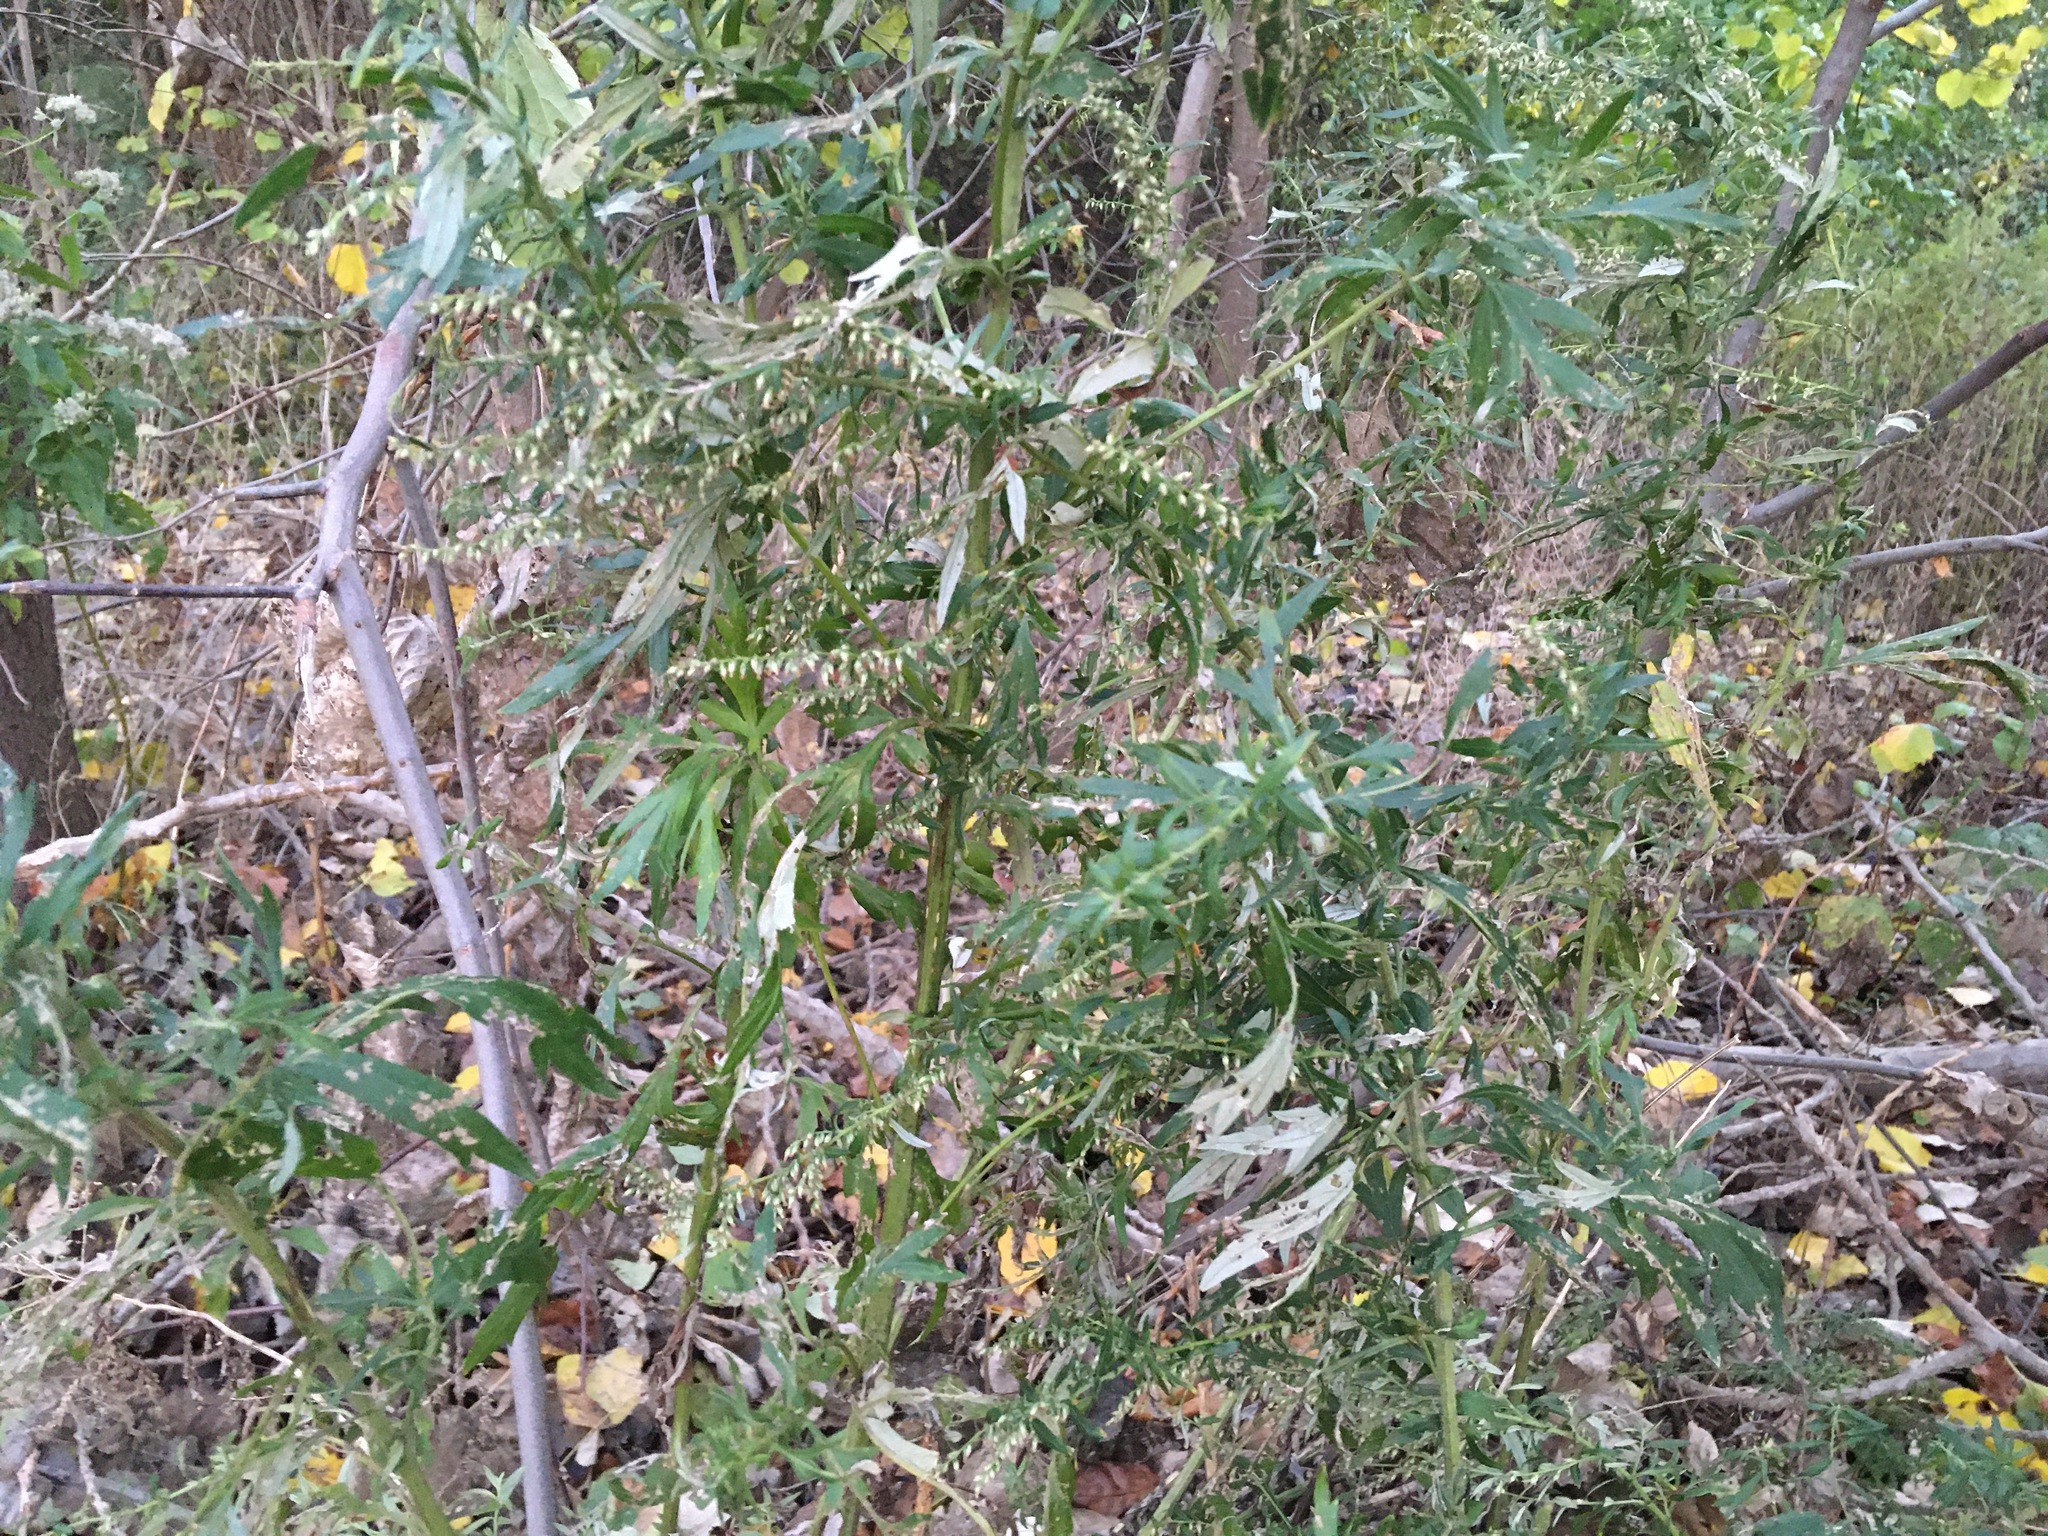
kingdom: Plantae
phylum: Tracheophyta
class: Magnoliopsida
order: Asterales
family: Asteraceae
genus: Artemisia
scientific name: Artemisia vulgaris
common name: Mugwort
